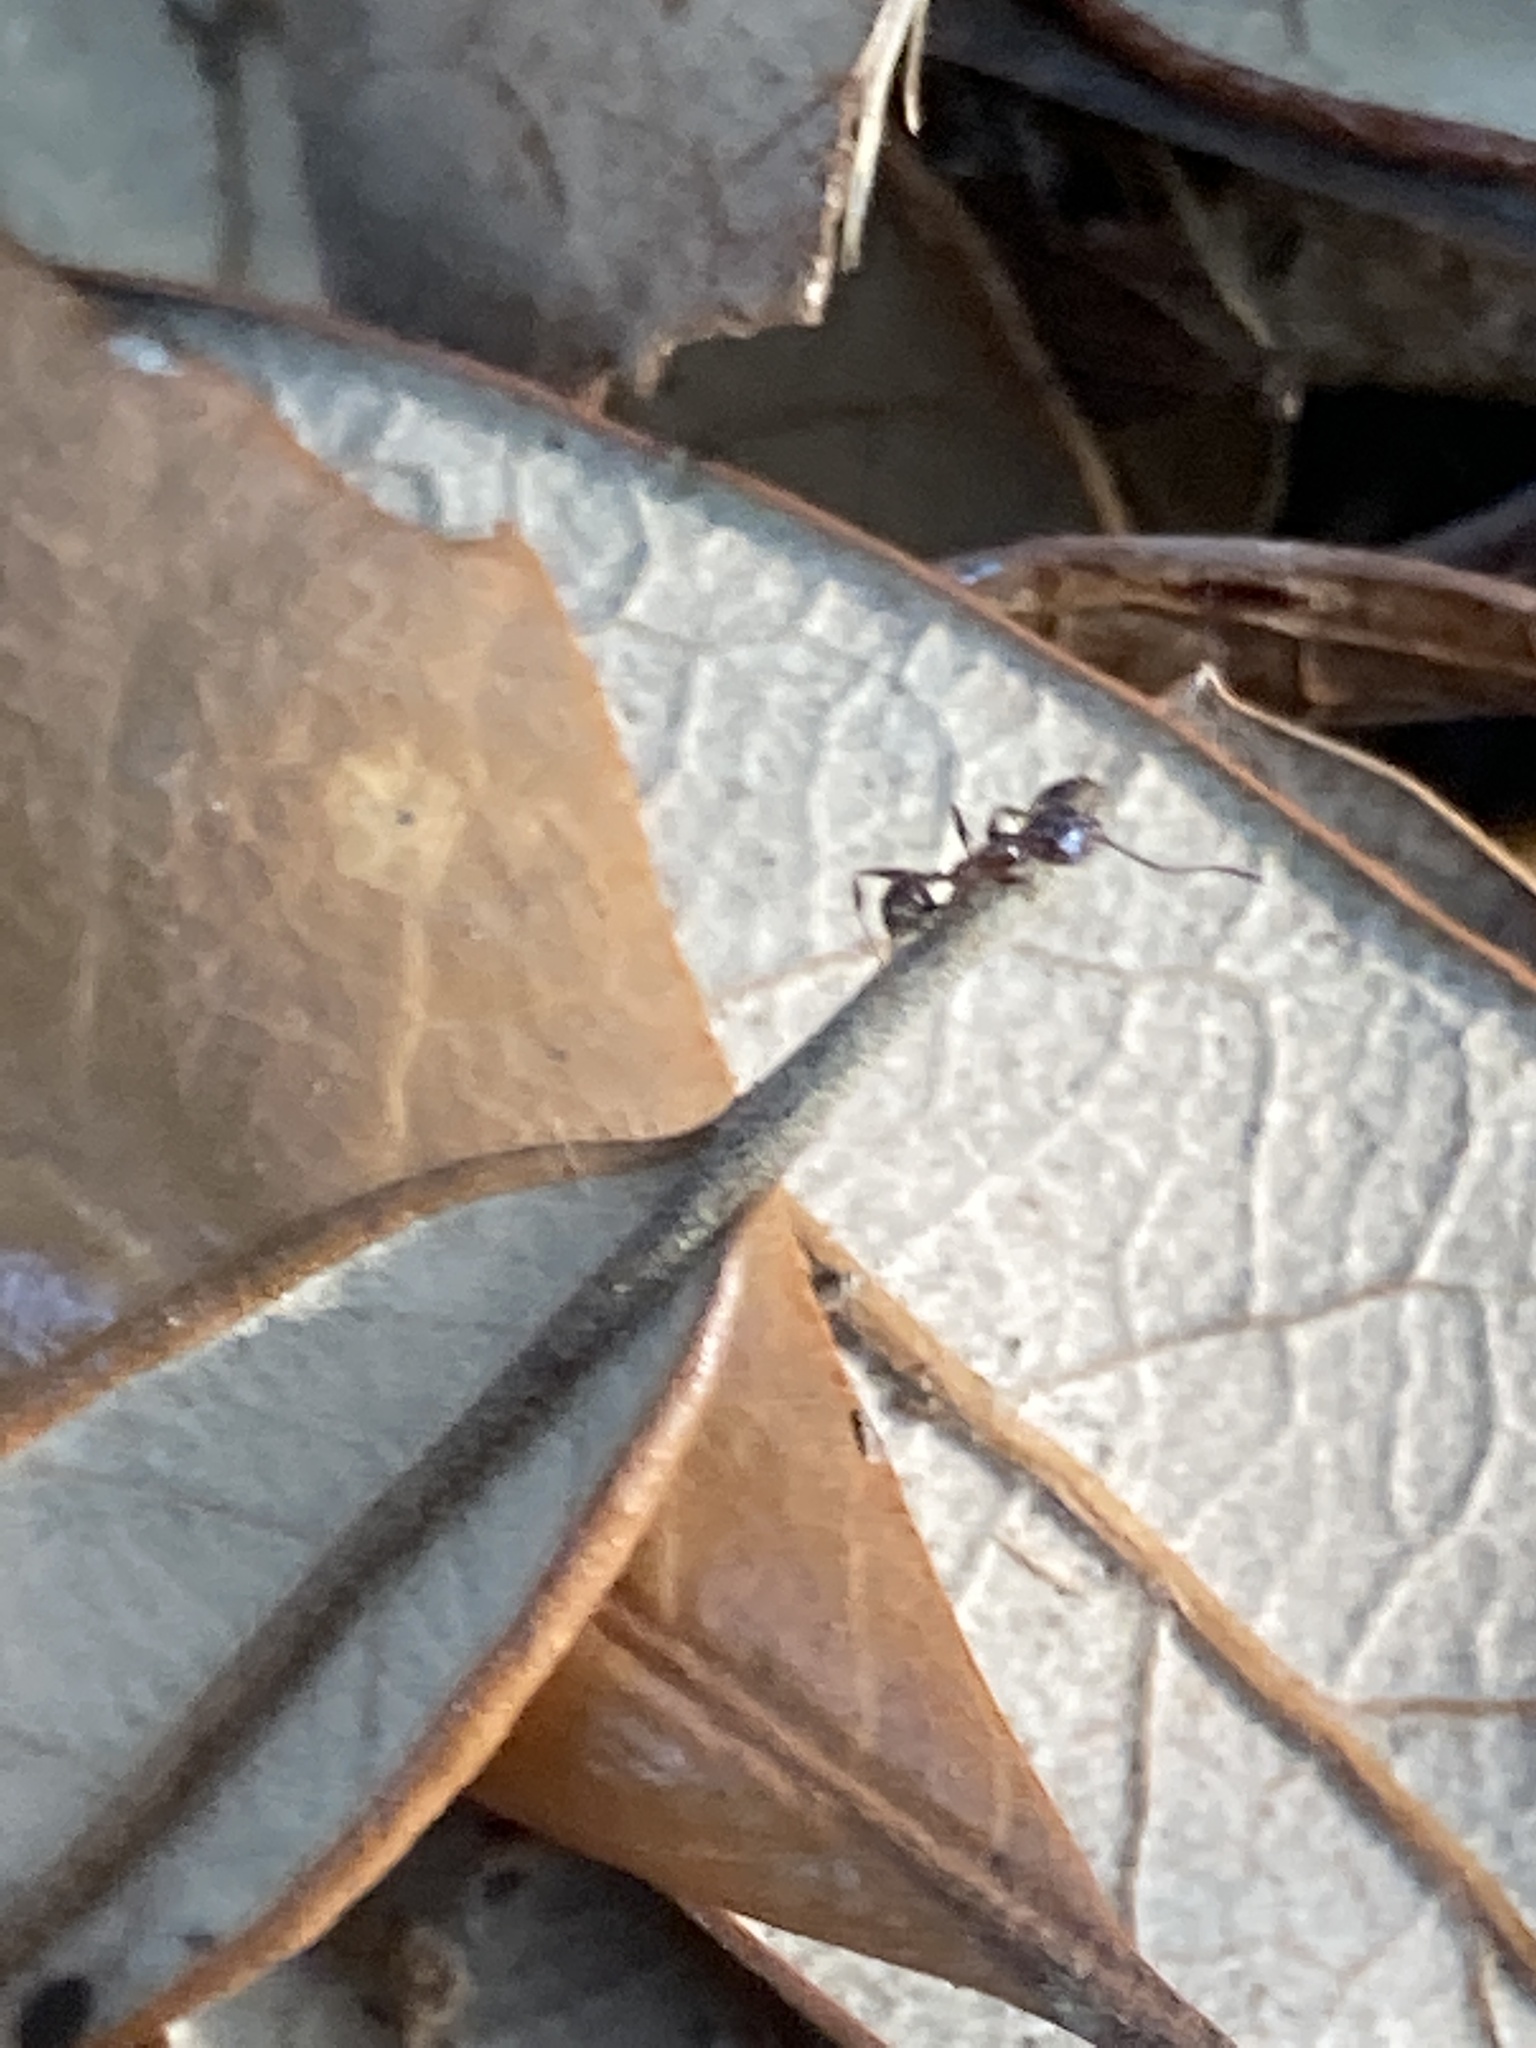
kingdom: Animalia
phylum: Arthropoda
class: Insecta
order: Hymenoptera
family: Formicidae
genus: Pheidole
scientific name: Pheidole obscurithorax
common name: Obscure big-headed ant
